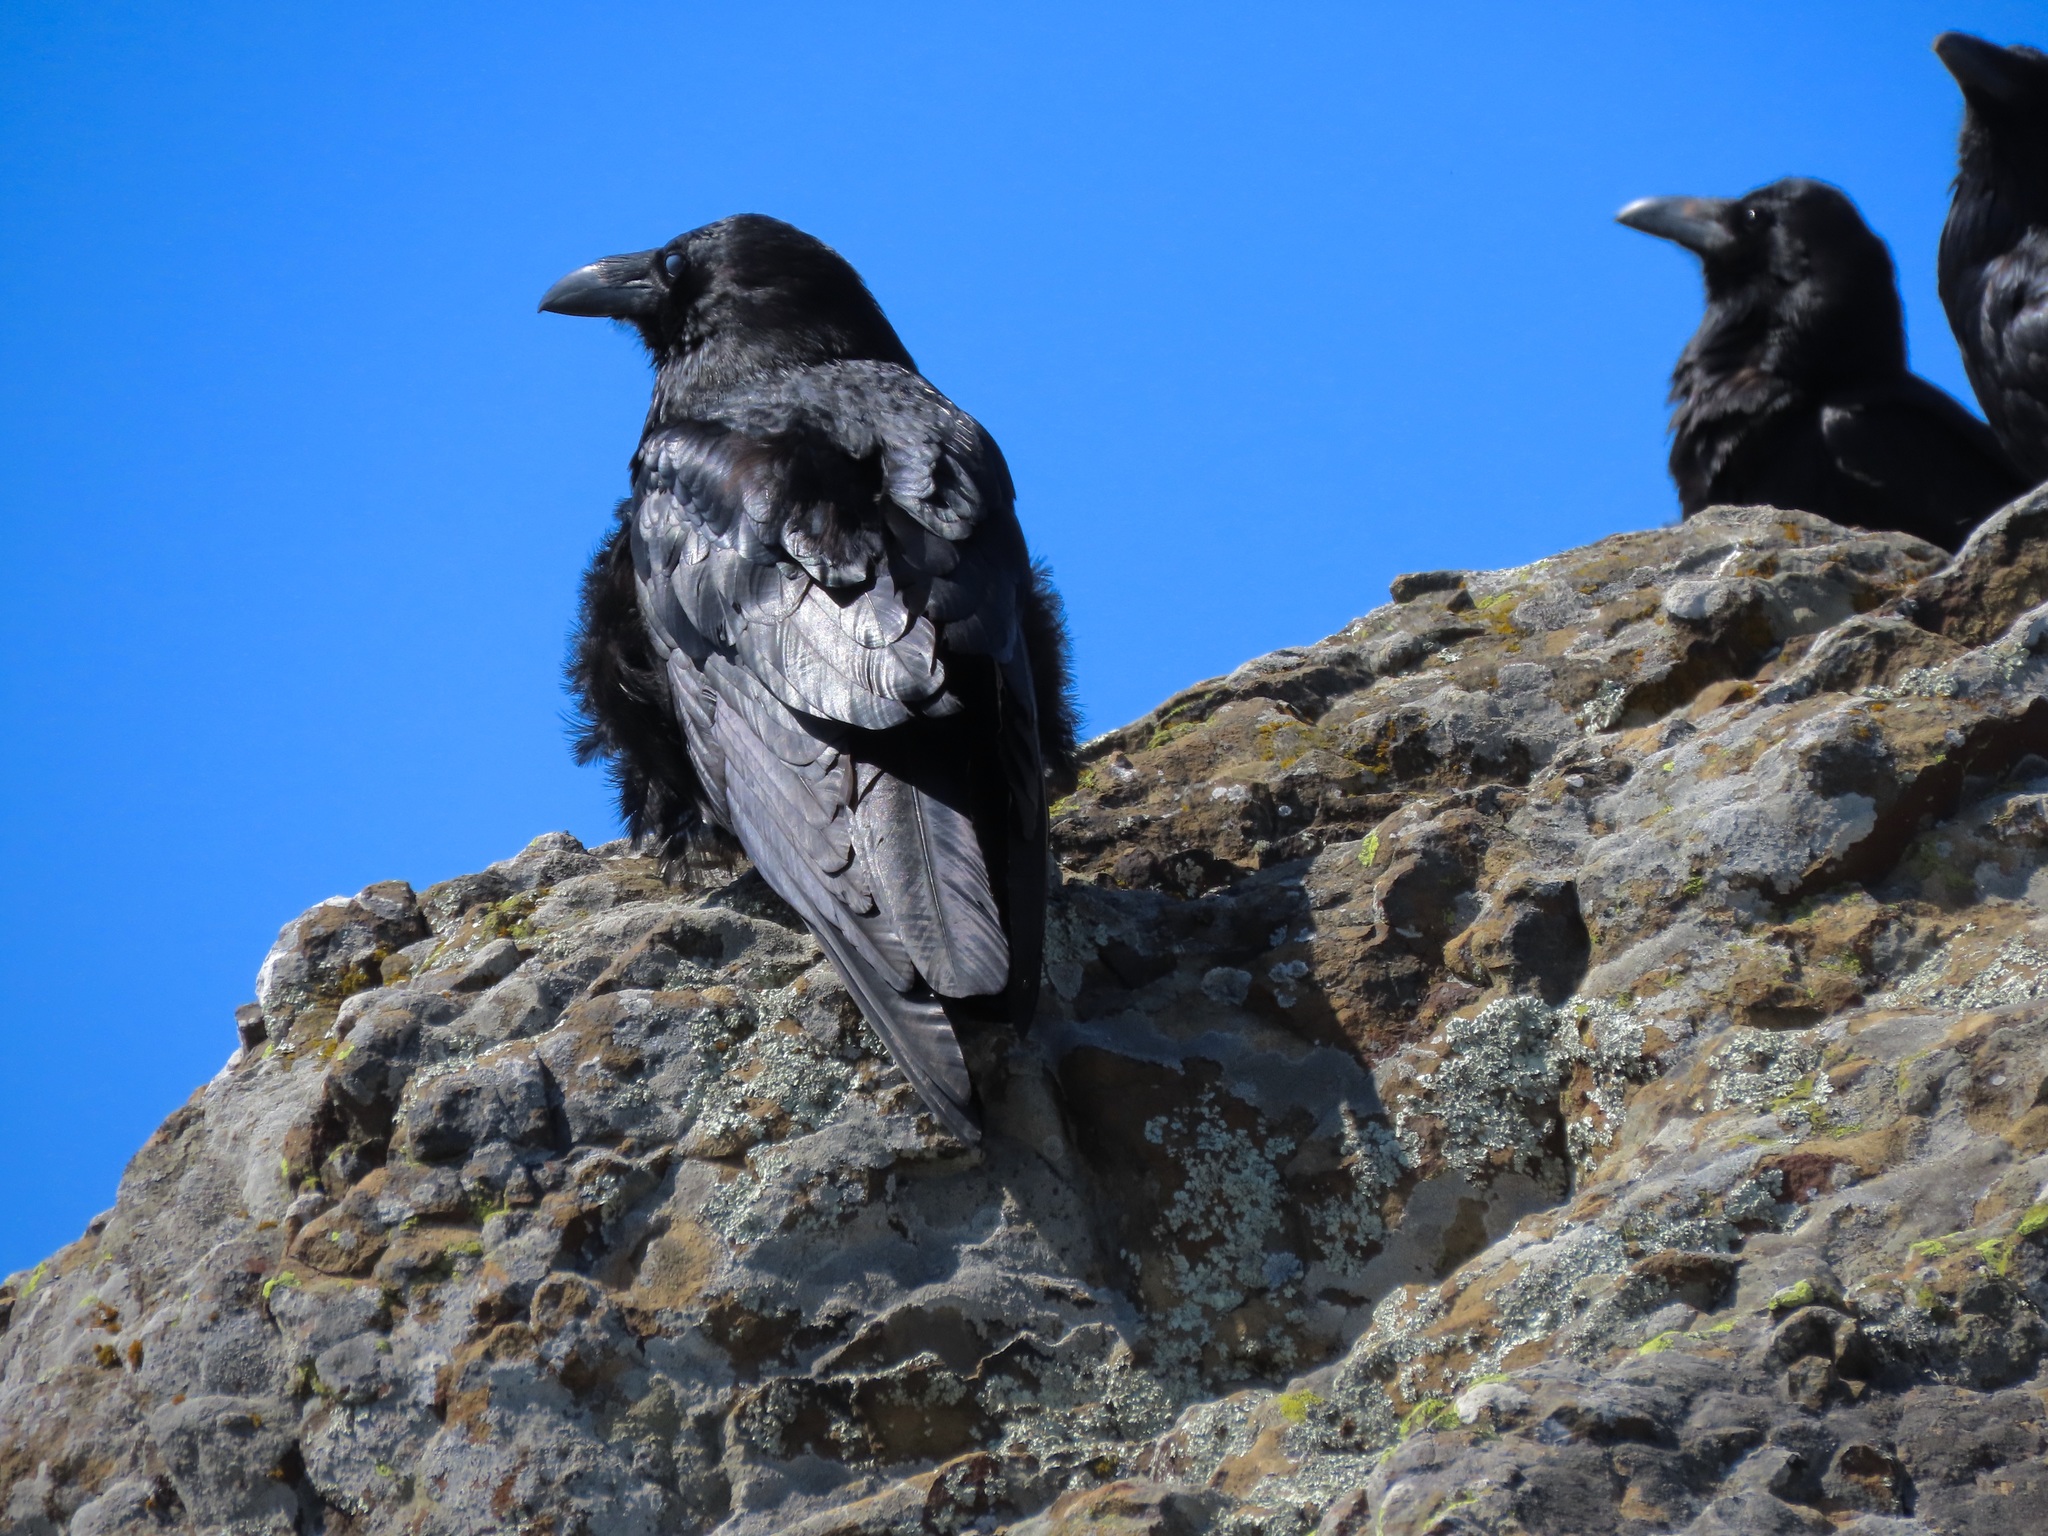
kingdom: Animalia
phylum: Chordata
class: Aves
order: Passeriformes
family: Corvidae
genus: Corvus
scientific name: Corvus corax
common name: Common raven
